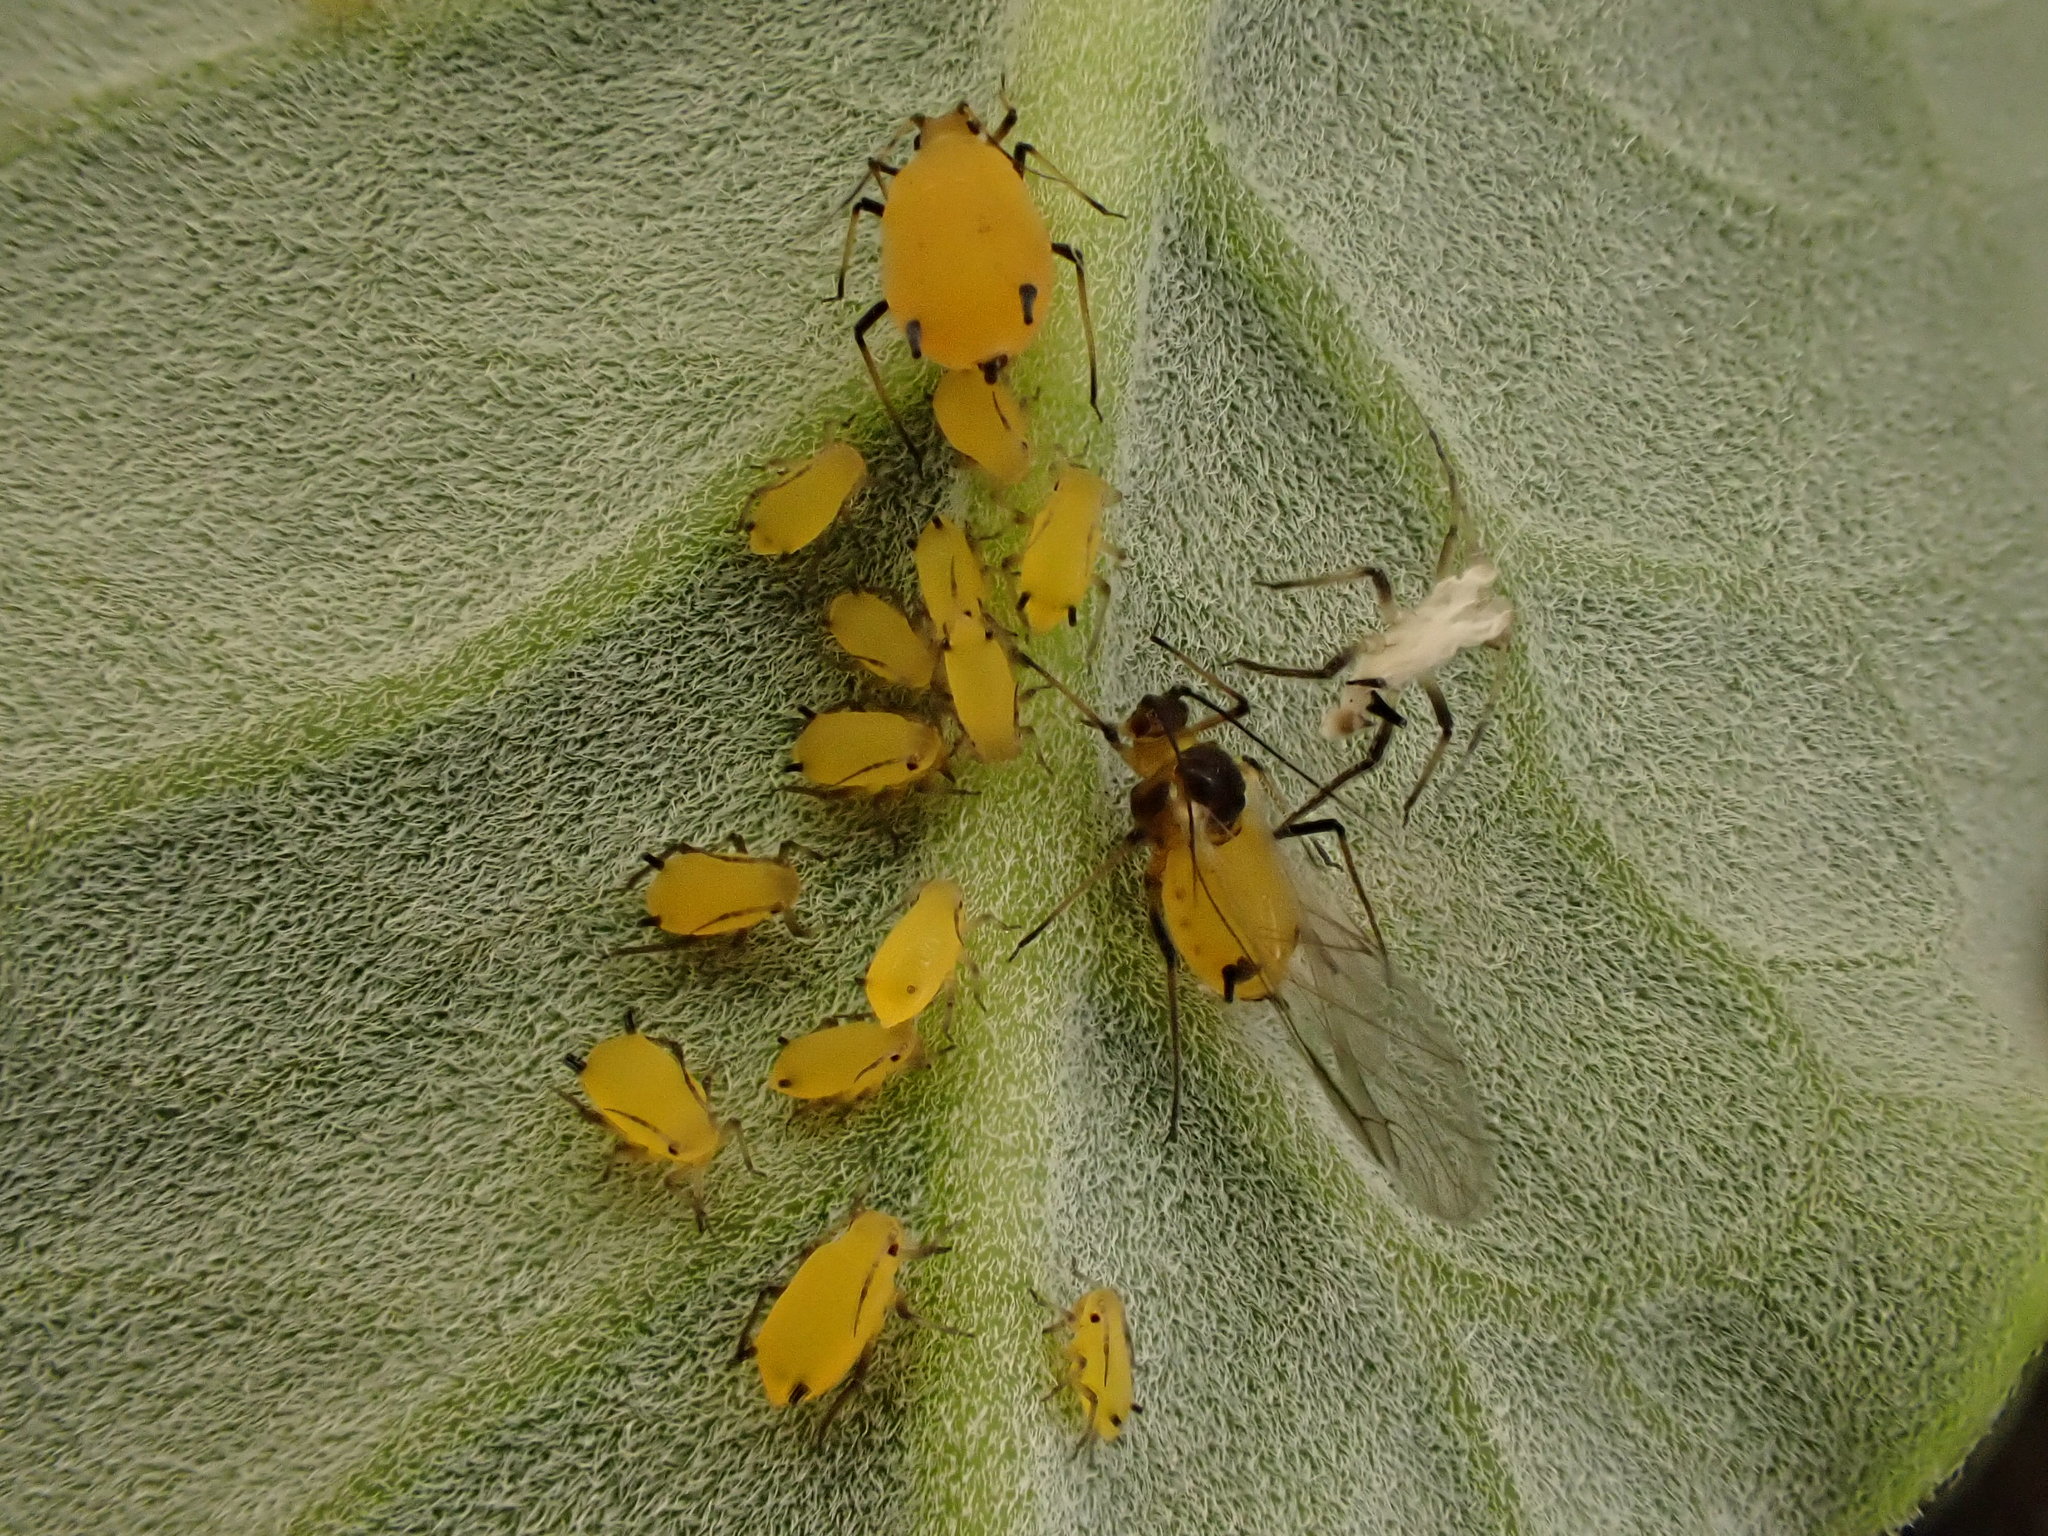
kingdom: Animalia
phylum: Arthropoda
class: Insecta
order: Hemiptera
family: Aphididae
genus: Aphis
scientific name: Aphis nerii
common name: Oleander aphid
